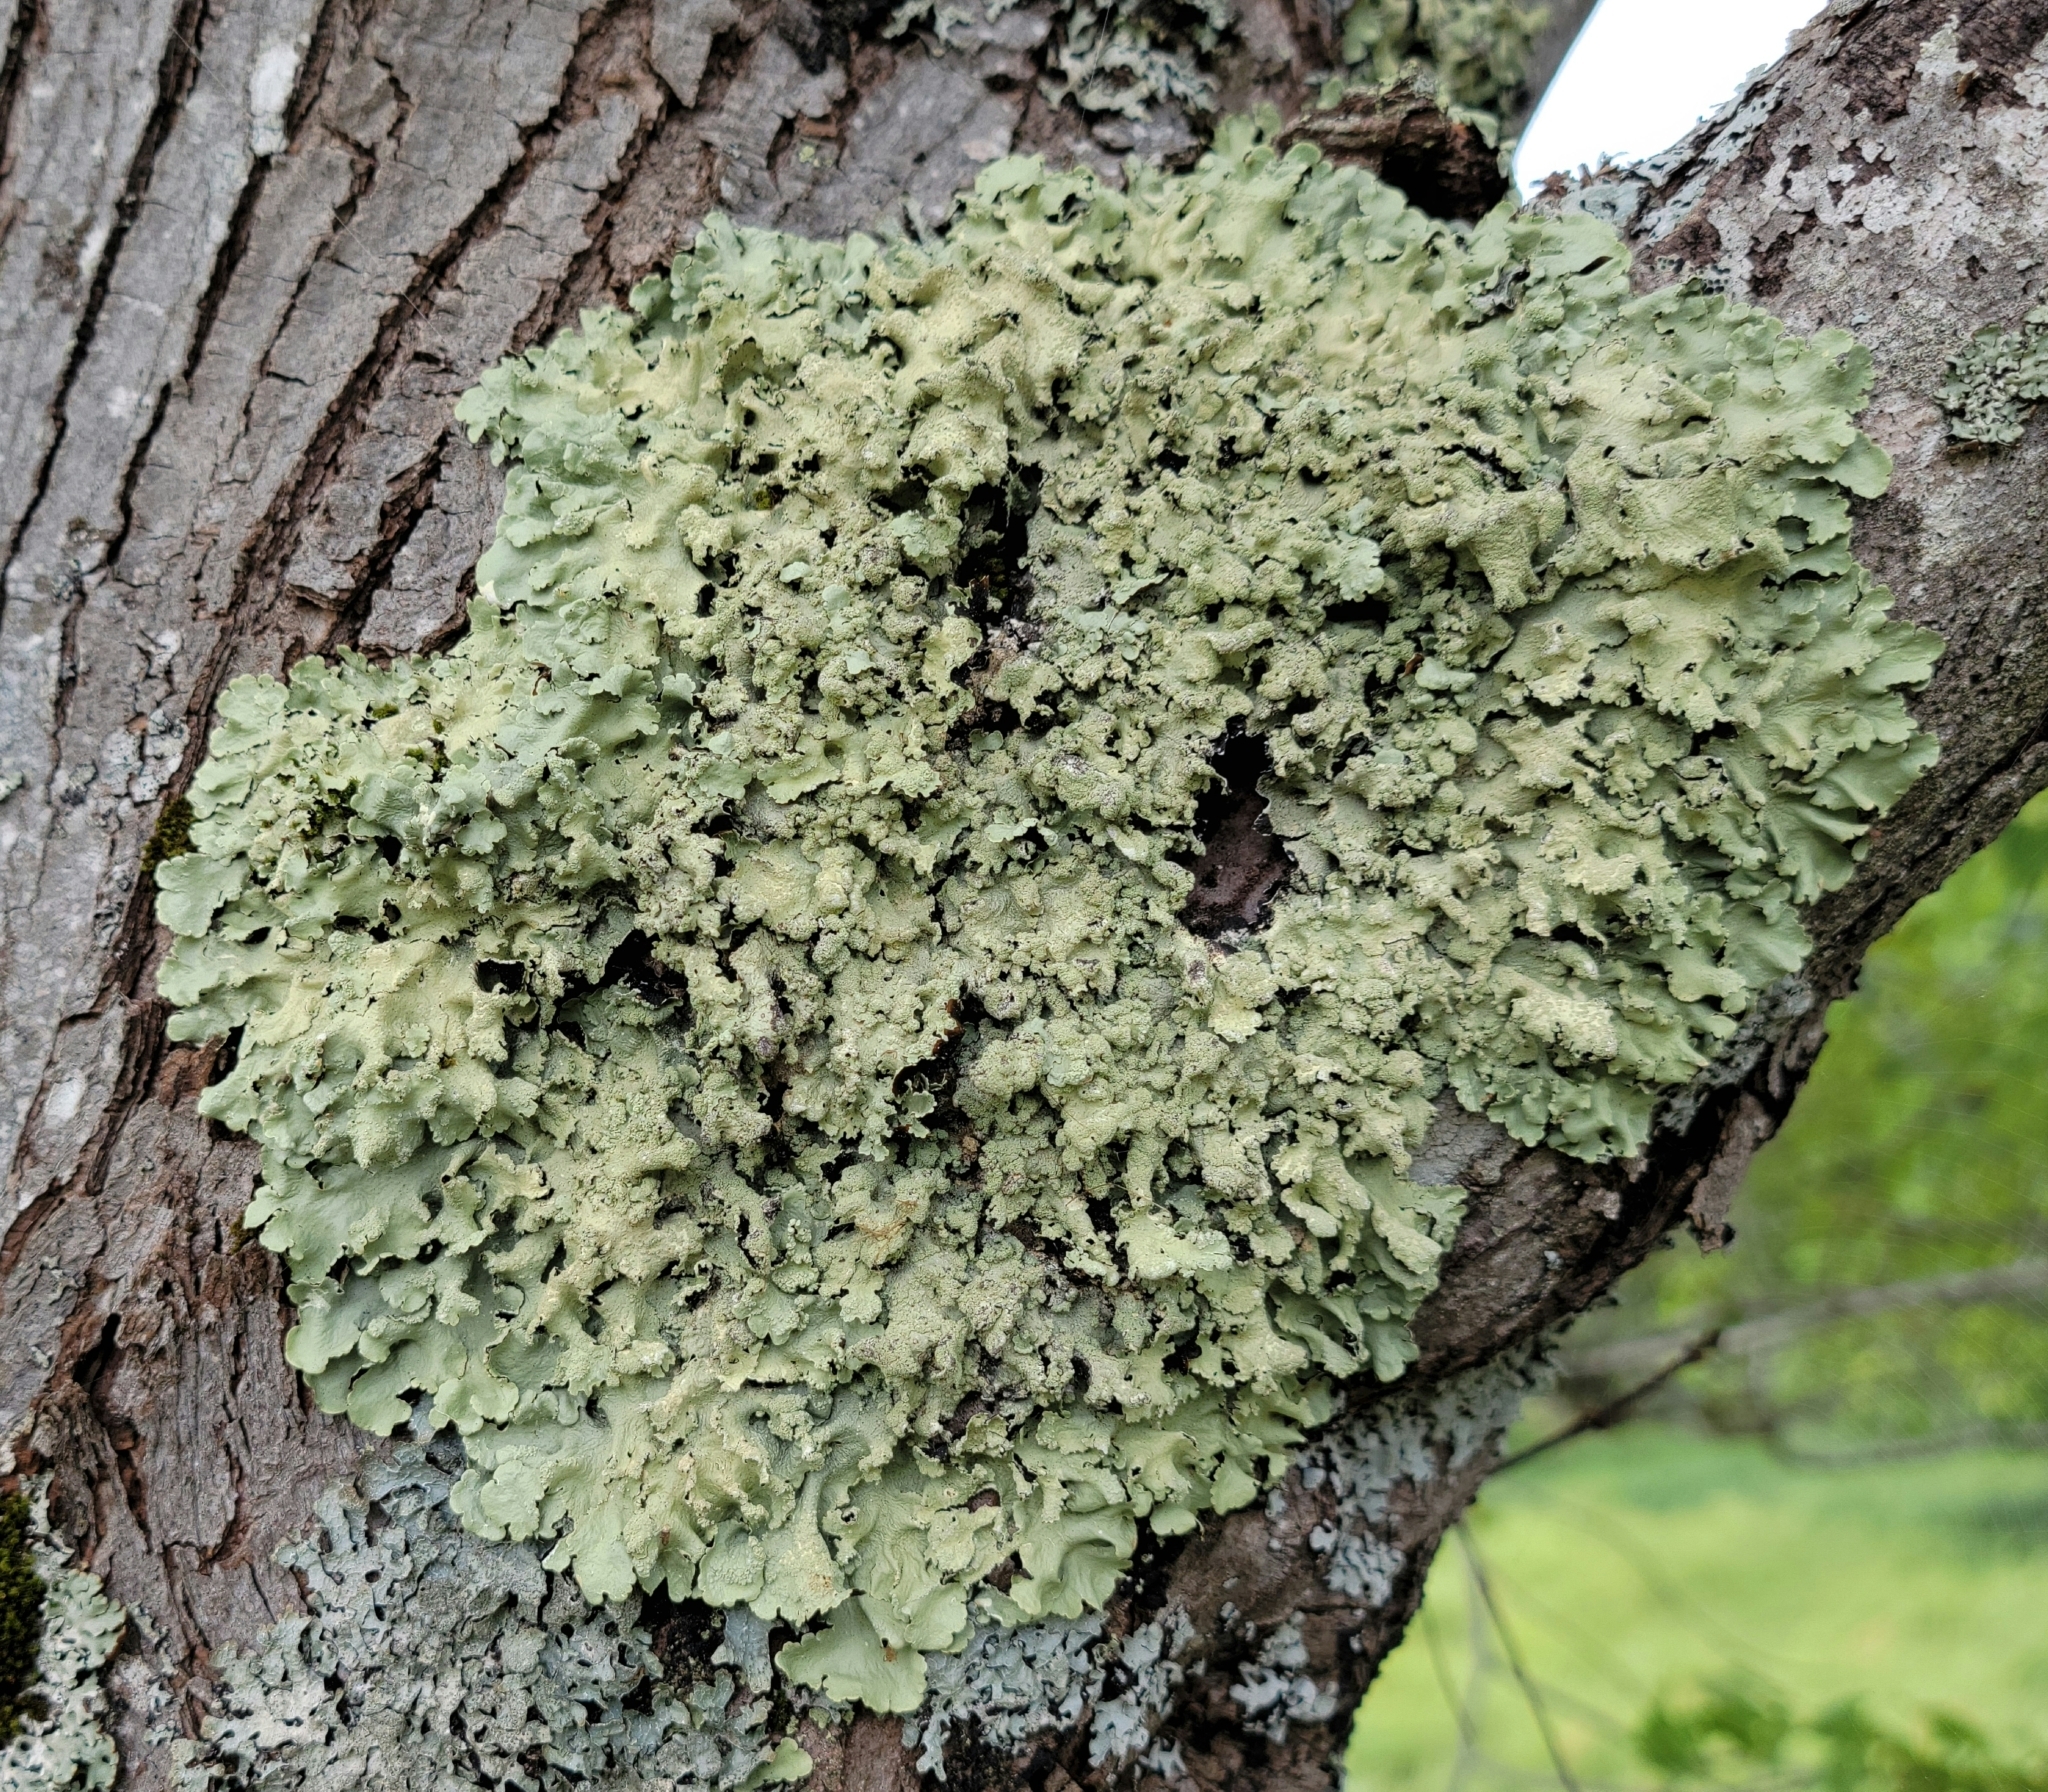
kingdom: Fungi
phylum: Ascomycota
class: Lecanoromycetes
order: Lecanorales
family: Parmeliaceae
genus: Flavoparmelia
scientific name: Flavoparmelia caperata
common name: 40-mile per hour lichen
